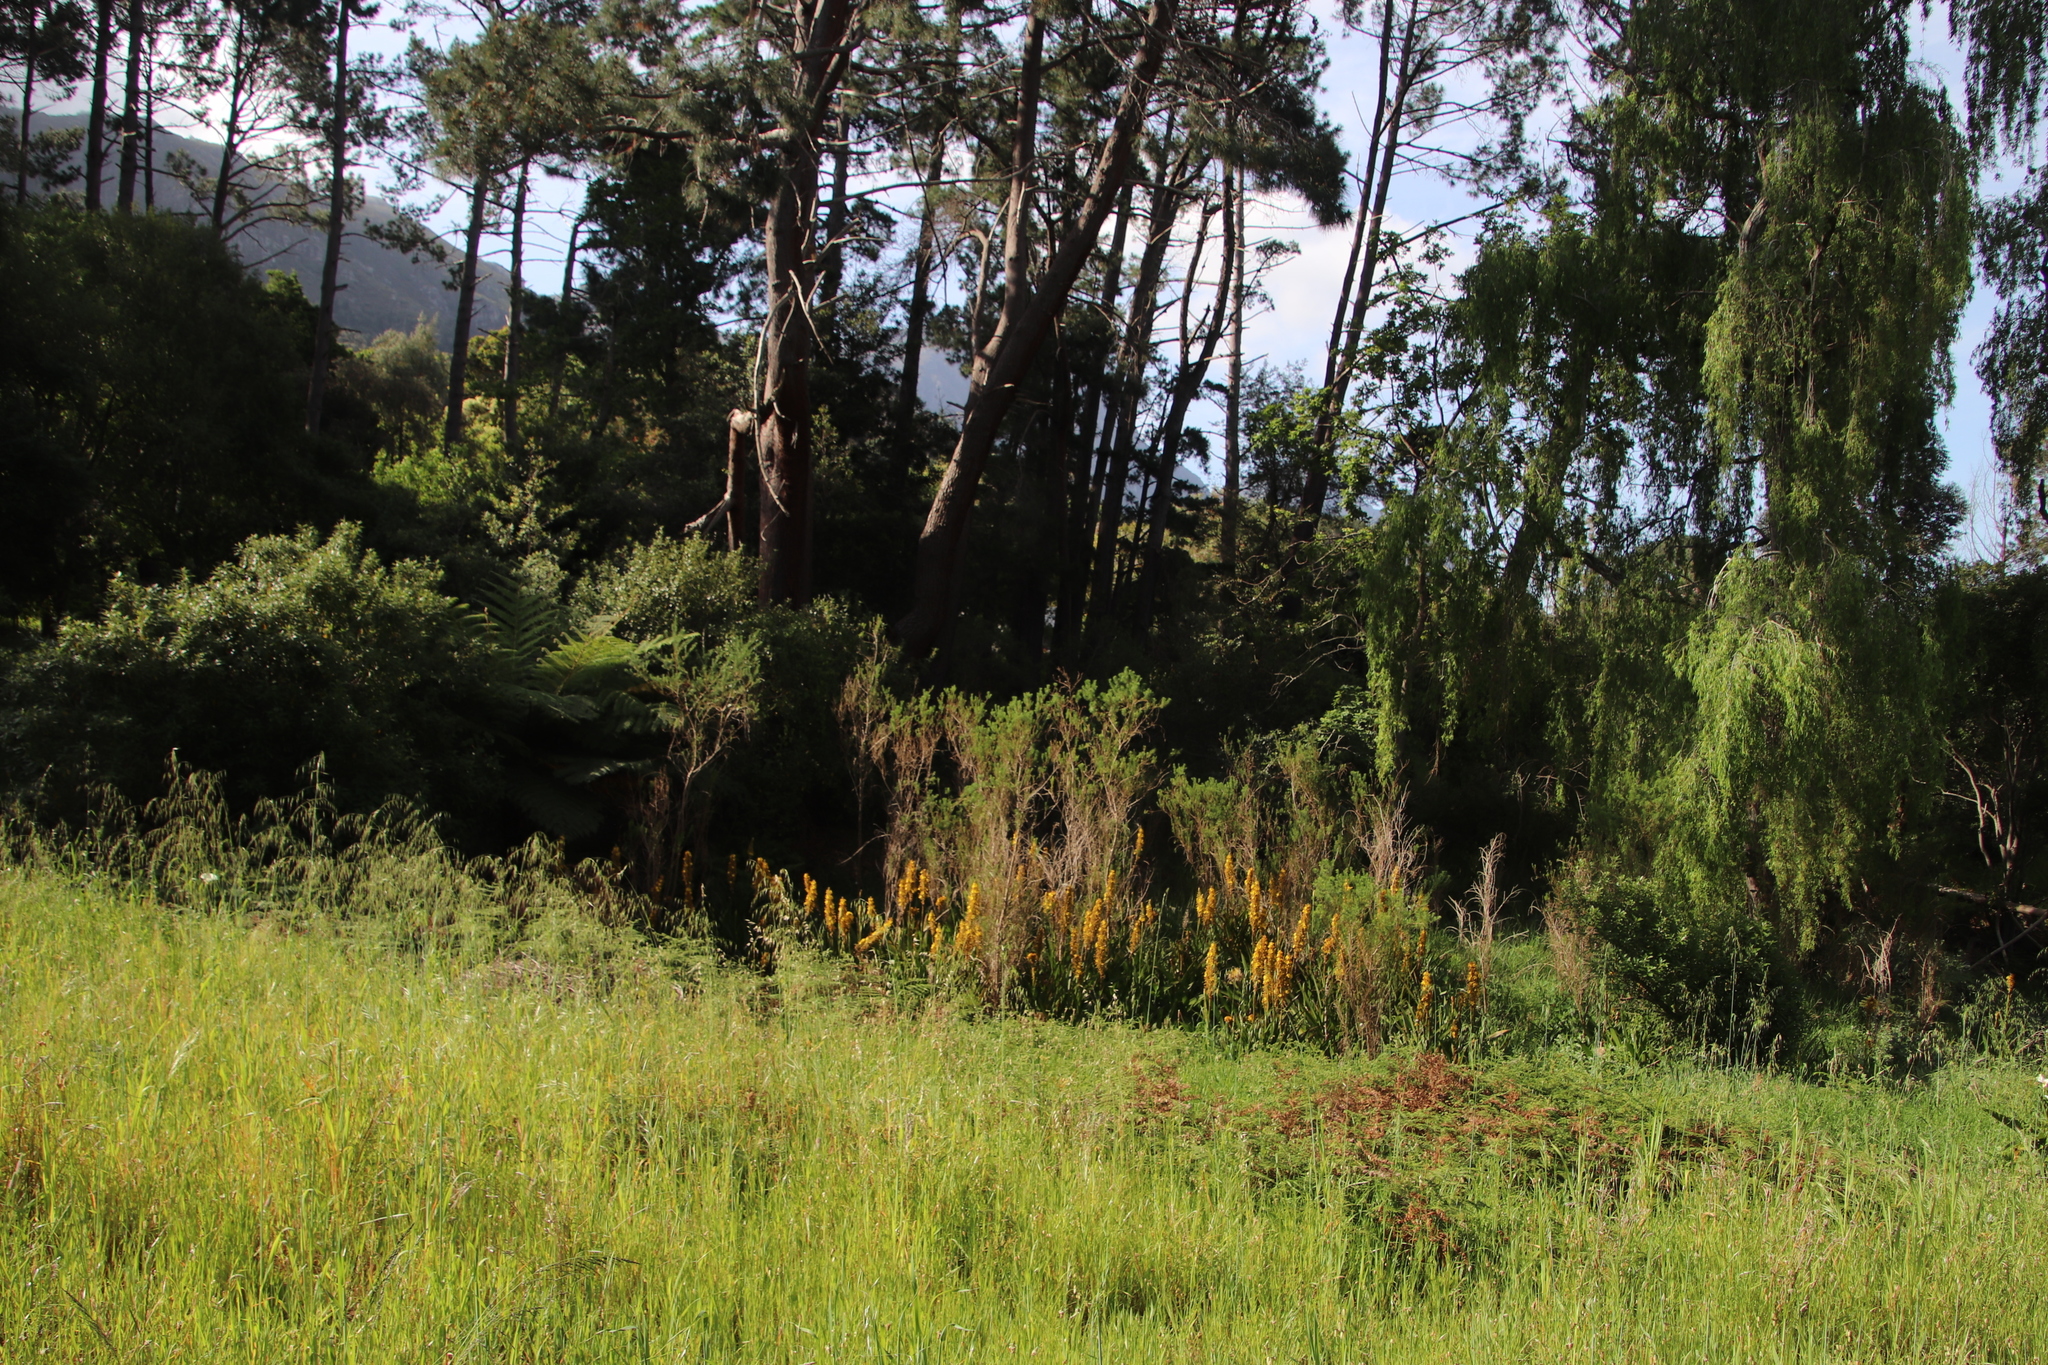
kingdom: Plantae
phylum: Tracheophyta
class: Liliopsida
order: Commelinales
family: Haemodoraceae
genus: Wachendorfia
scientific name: Wachendorfia thyrsiflora
